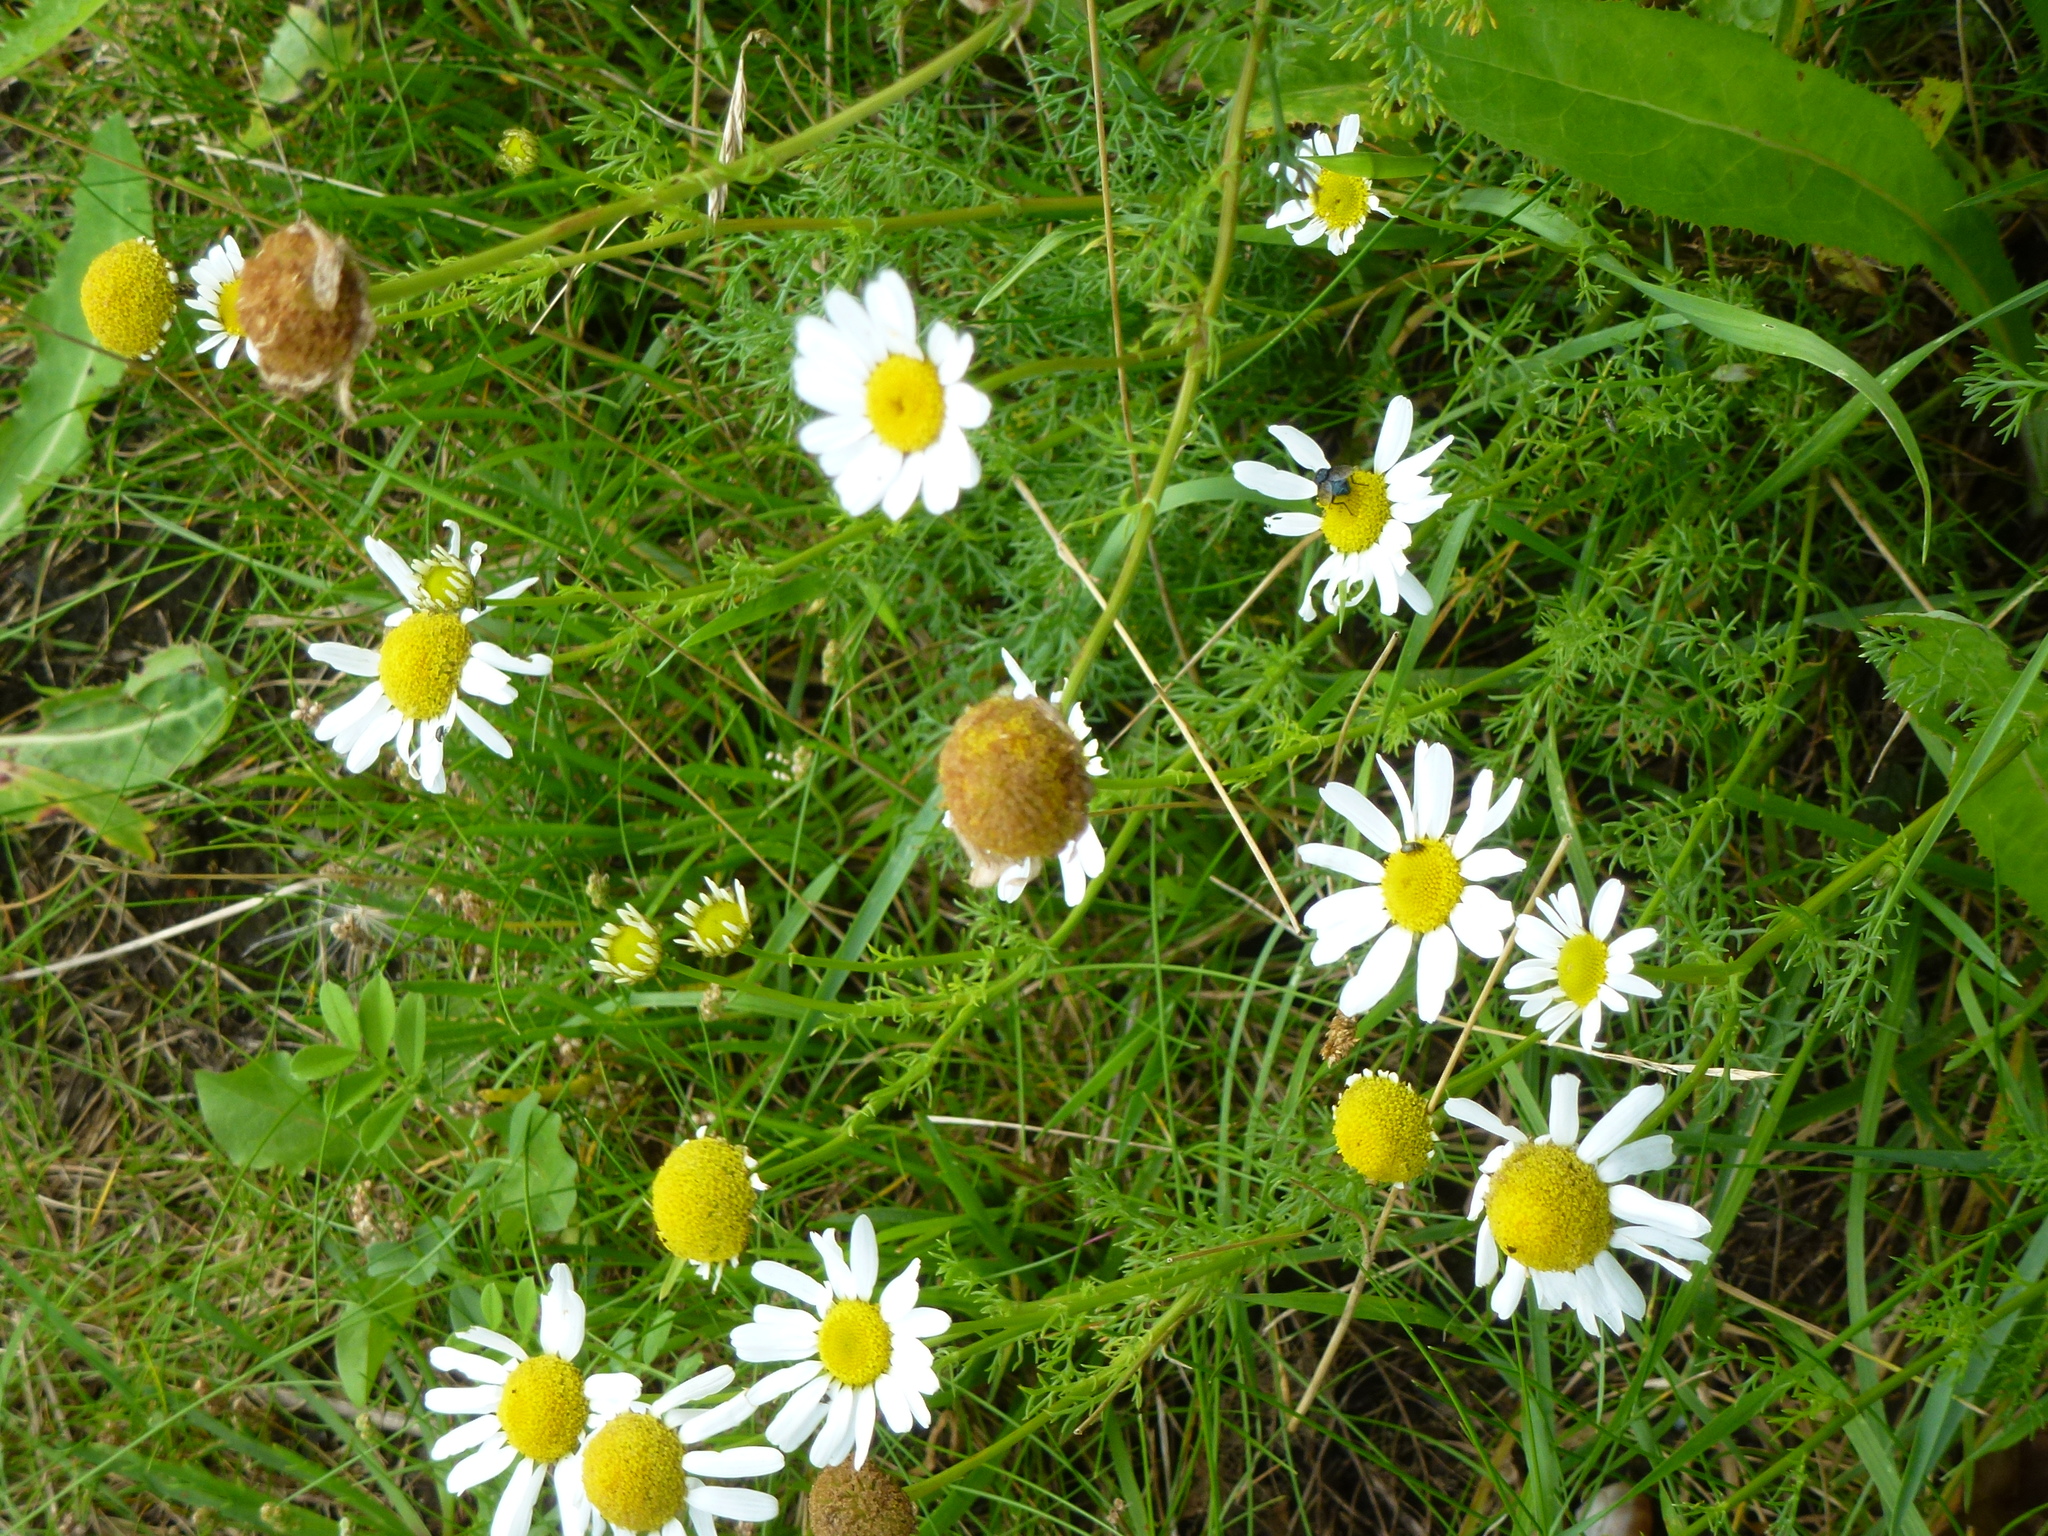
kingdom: Plantae
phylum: Tracheophyta
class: Magnoliopsida
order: Asterales
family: Asteraceae
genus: Tripleurospermum
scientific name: Tripleurospermum inodorum
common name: Scentless mayweed
